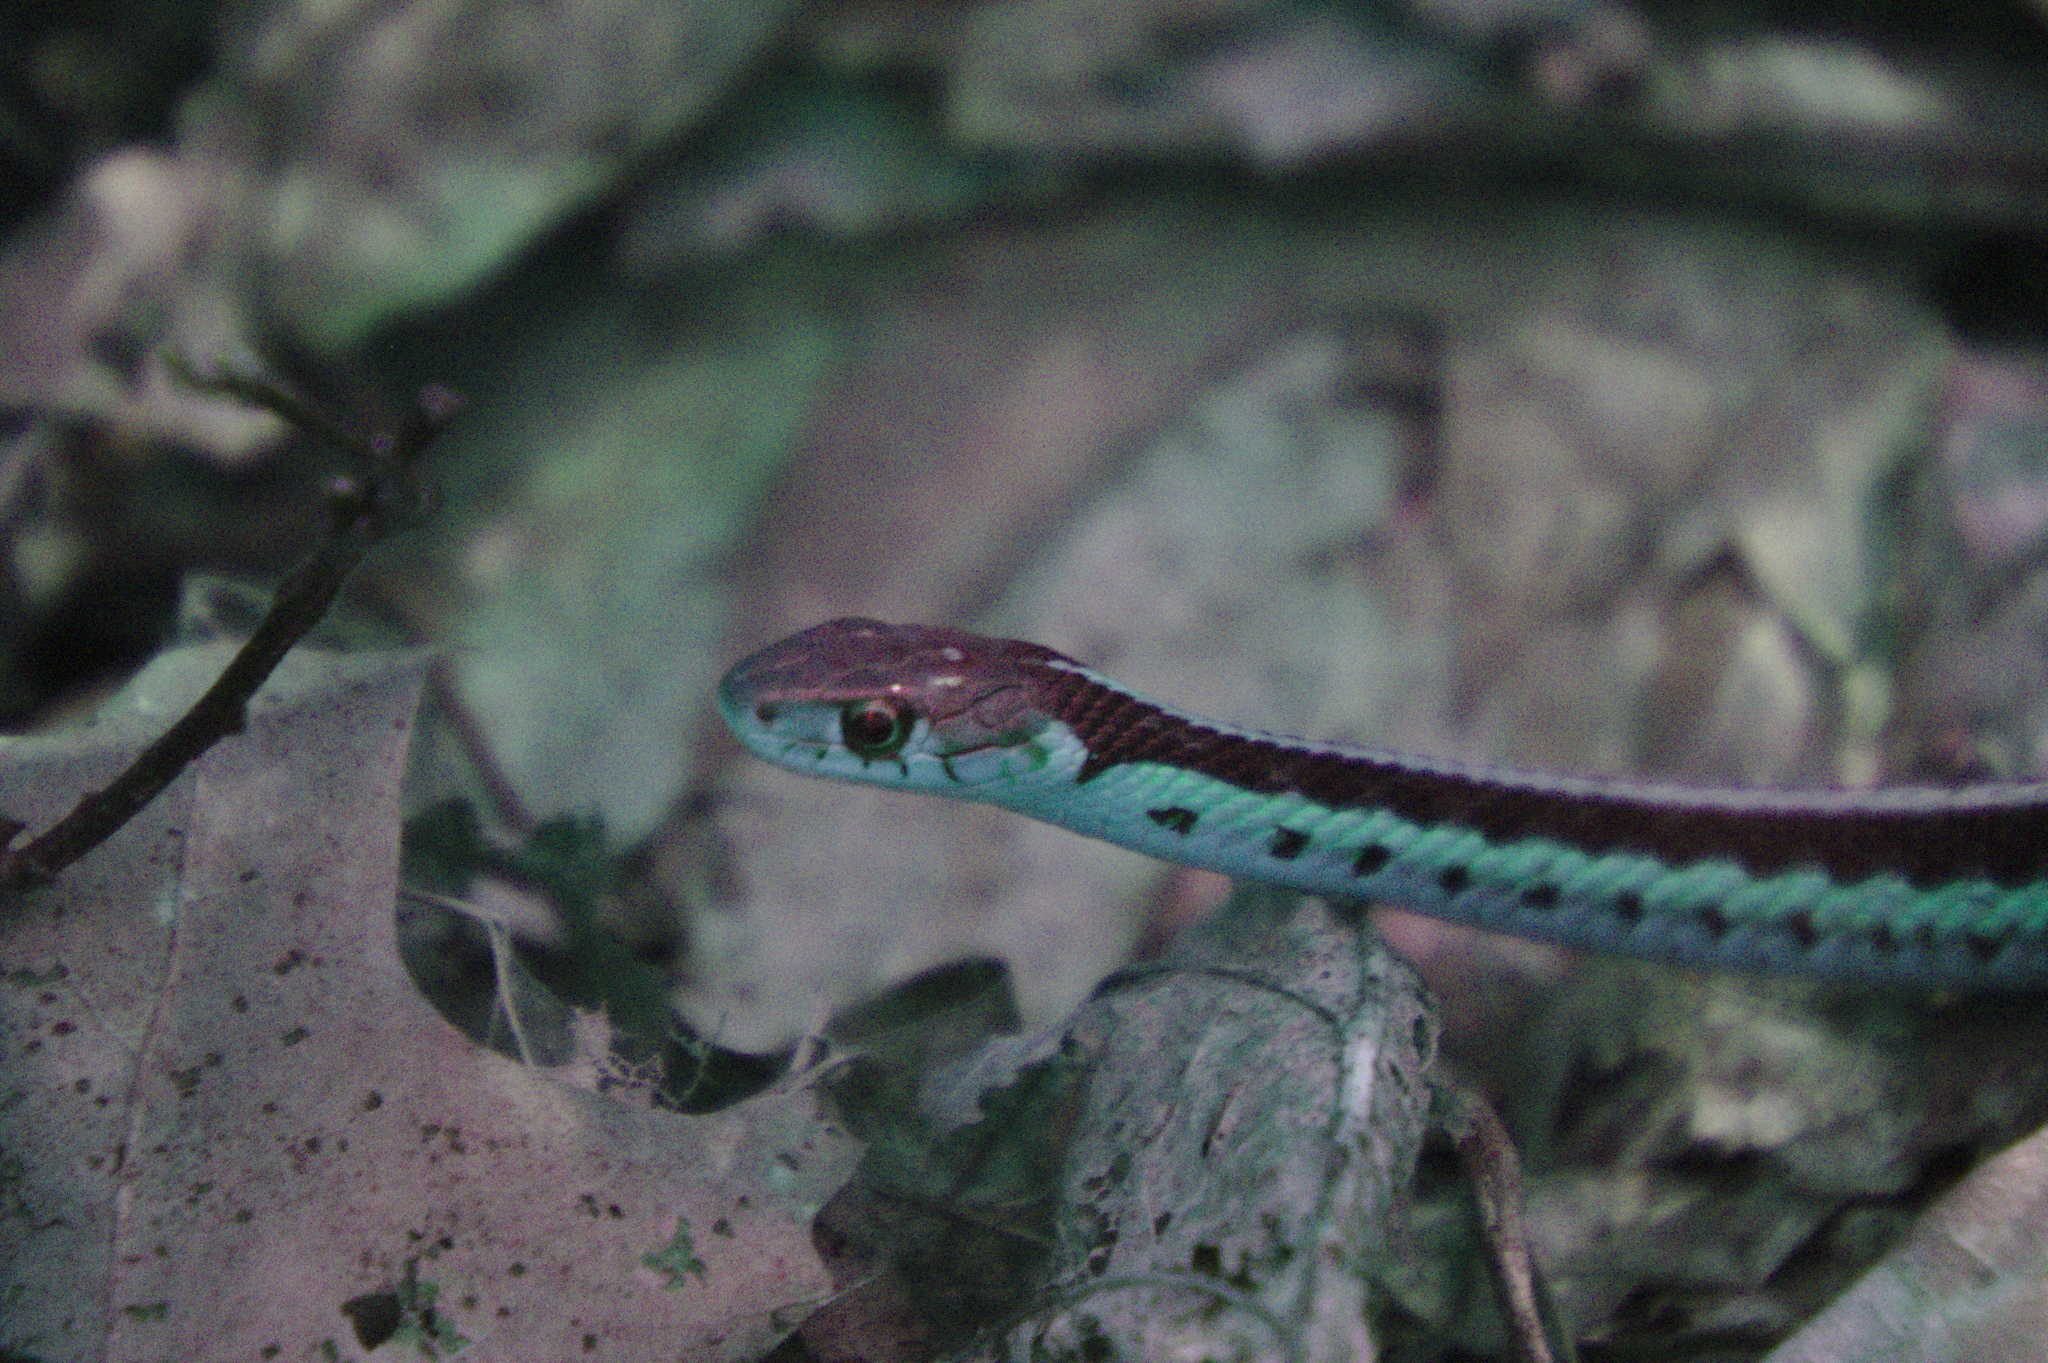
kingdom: Animalia
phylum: Chordata
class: Squamata
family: Colubridae
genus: Thamnophis
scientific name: Thamnophis sirtalis
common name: Common garter snake
